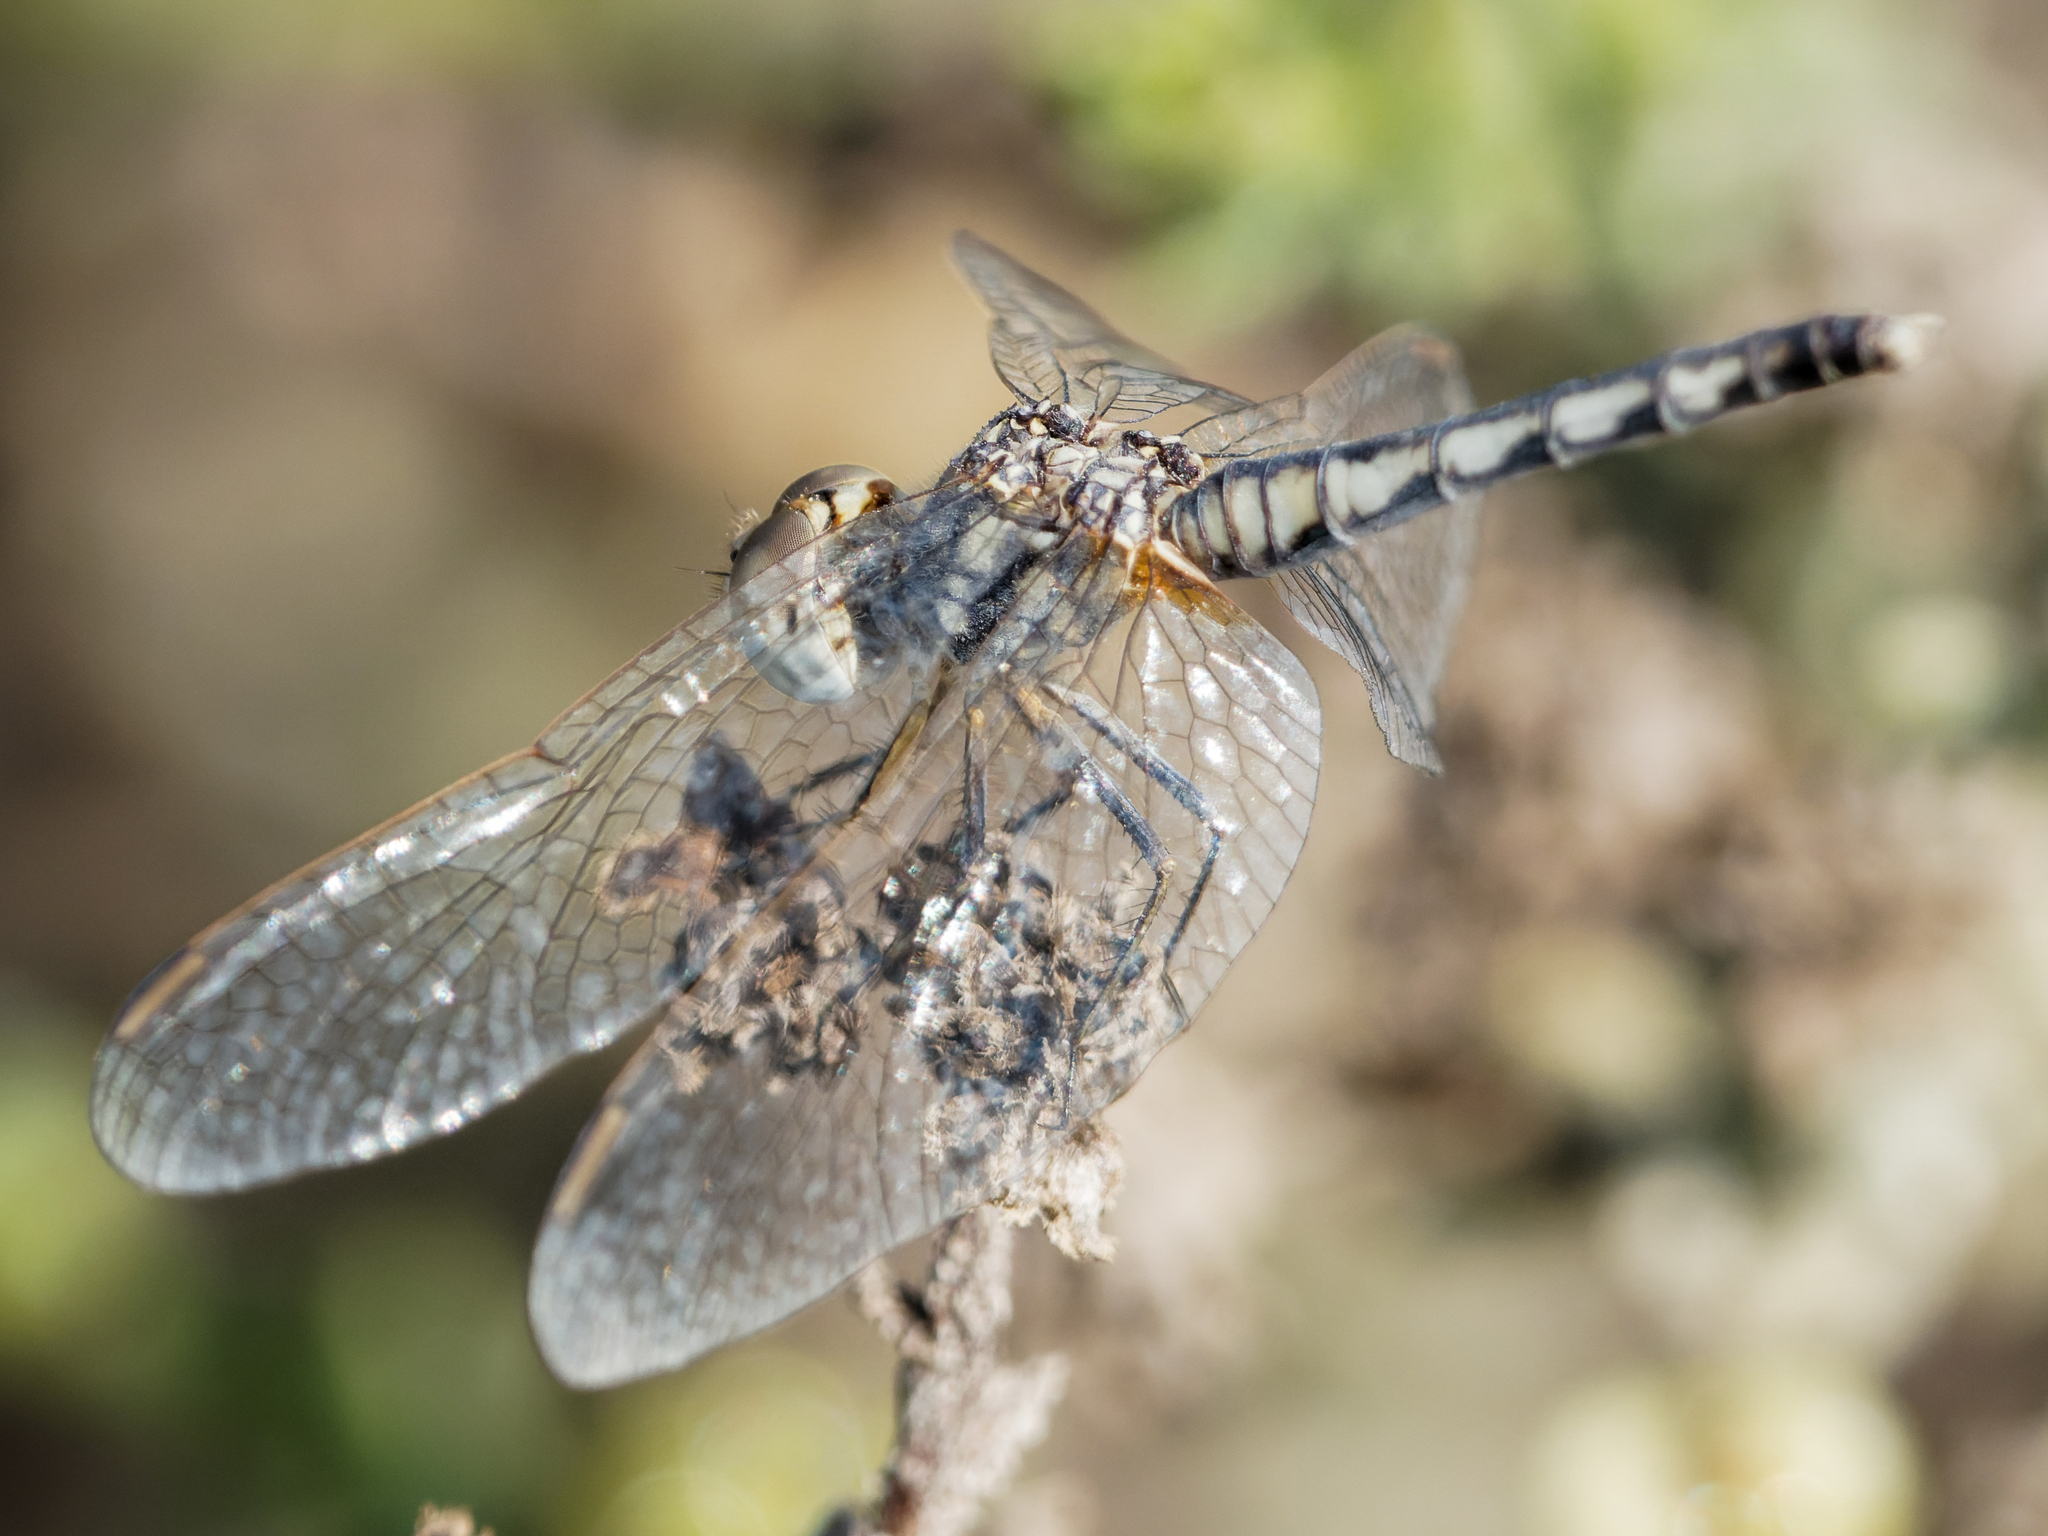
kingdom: Animalia
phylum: Arthropoda
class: Insecta
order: Odonata
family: Libellulidae
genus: Selysiothemis
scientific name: Selysiothemis nigra
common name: Black pennant
